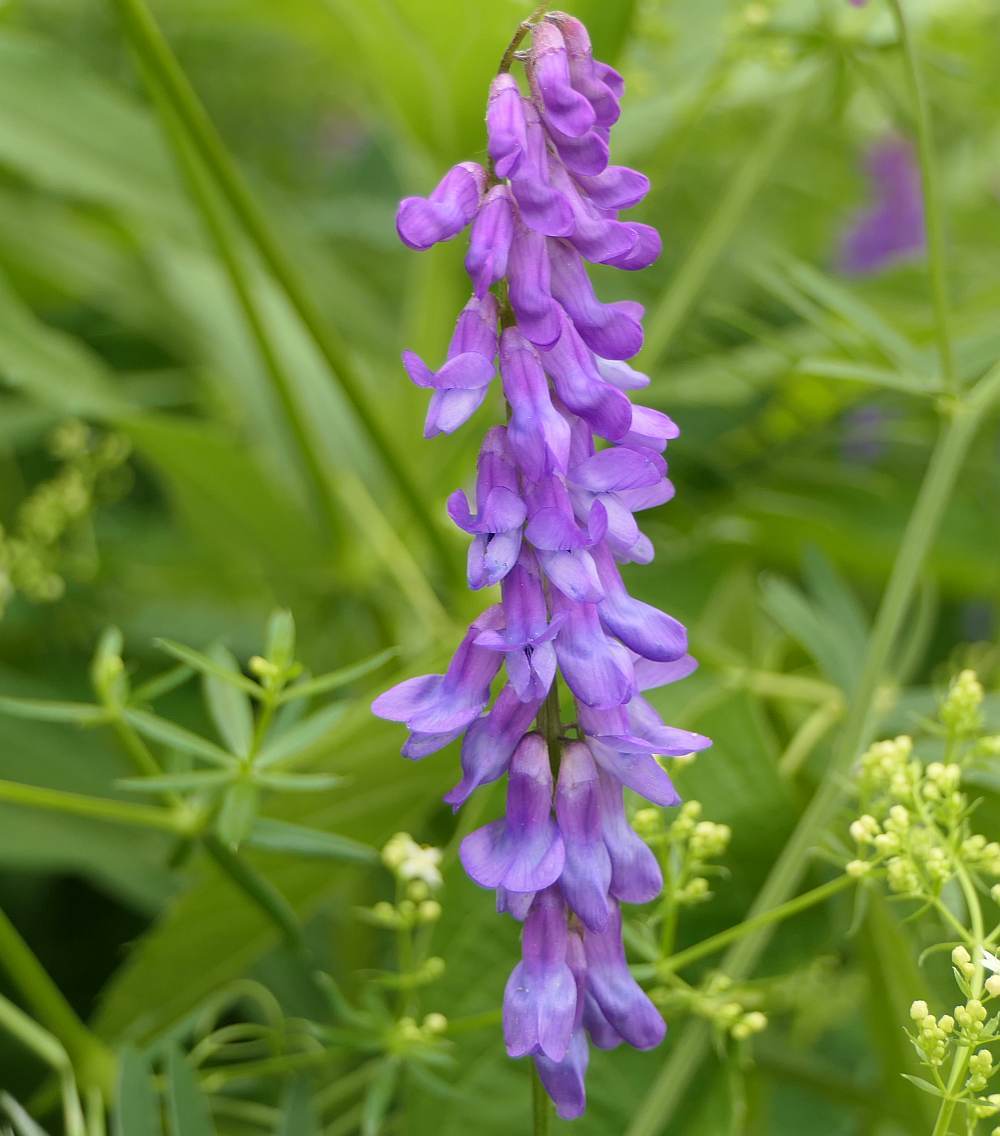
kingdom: Plantae
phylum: Tracheophyta
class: Magnoliopsida
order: Fabales
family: Fabaceae
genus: Vicia
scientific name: Vicia cracca
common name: Bird vetch
